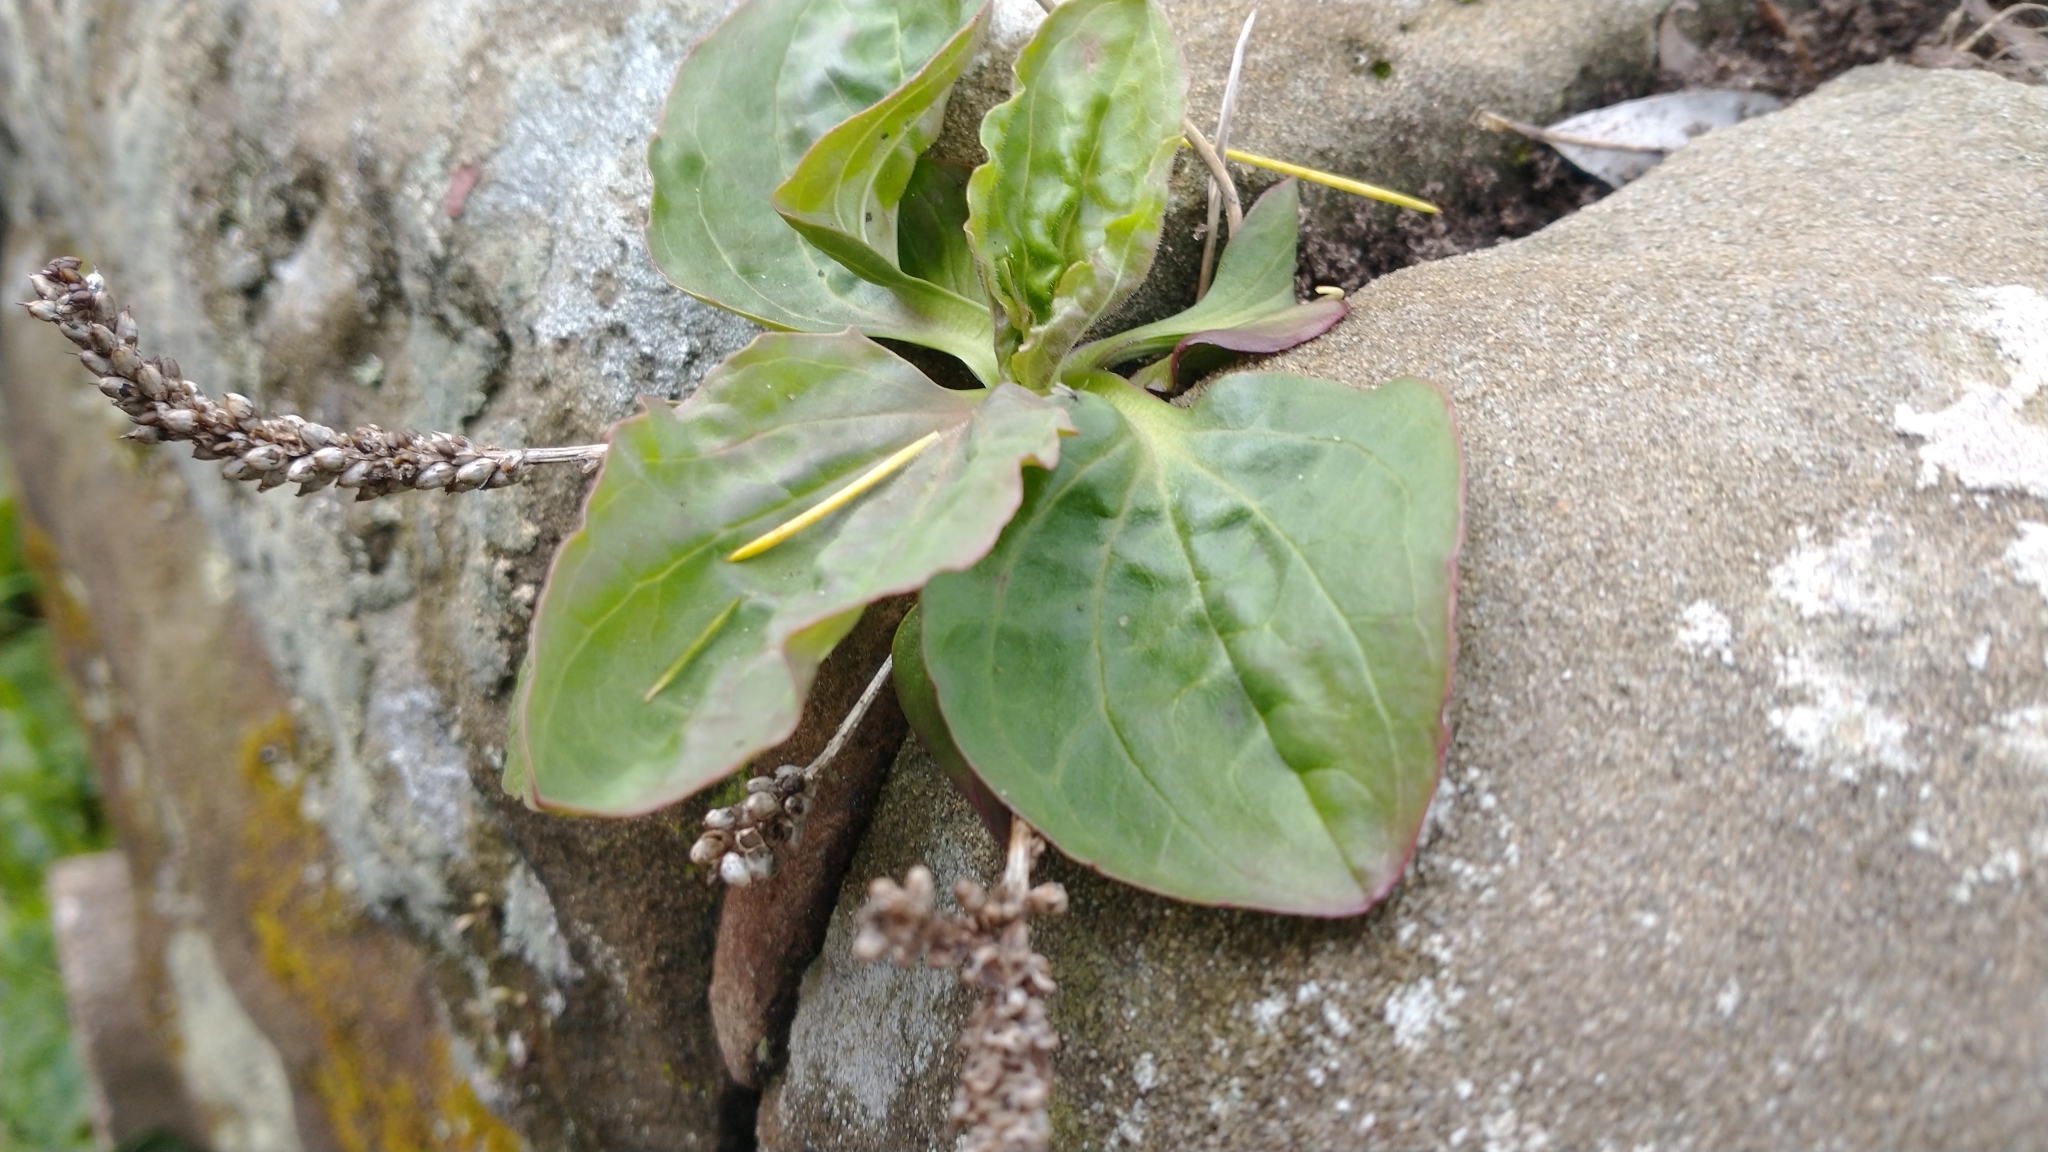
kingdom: Plantae
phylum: Tracheophyta
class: Magnoliopsida
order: Lamiales
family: Plantaginaceae
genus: Plantago
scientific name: Plantago major
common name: Common plantain
